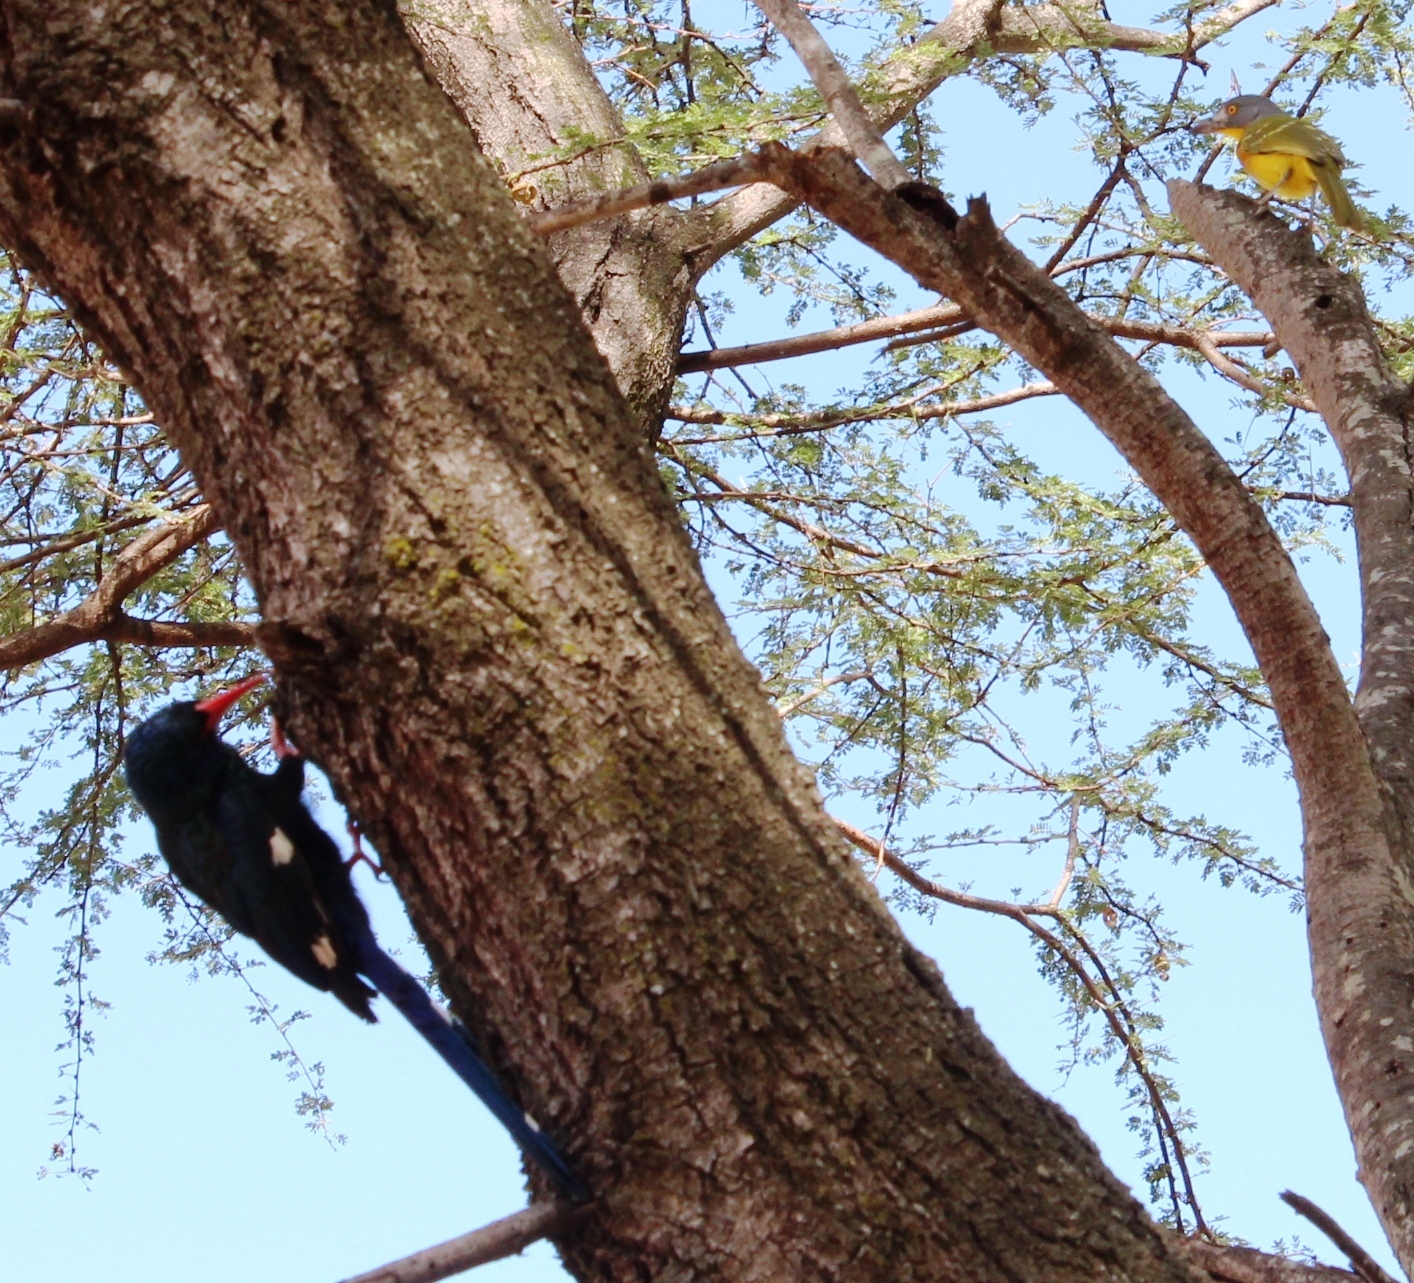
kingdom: Animalia
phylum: Chordata
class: Aves
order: Passeriformes
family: Malaconotidae
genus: Malaconotus
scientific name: Malaconotus blanchoti
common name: Grey-headed bushshrike
